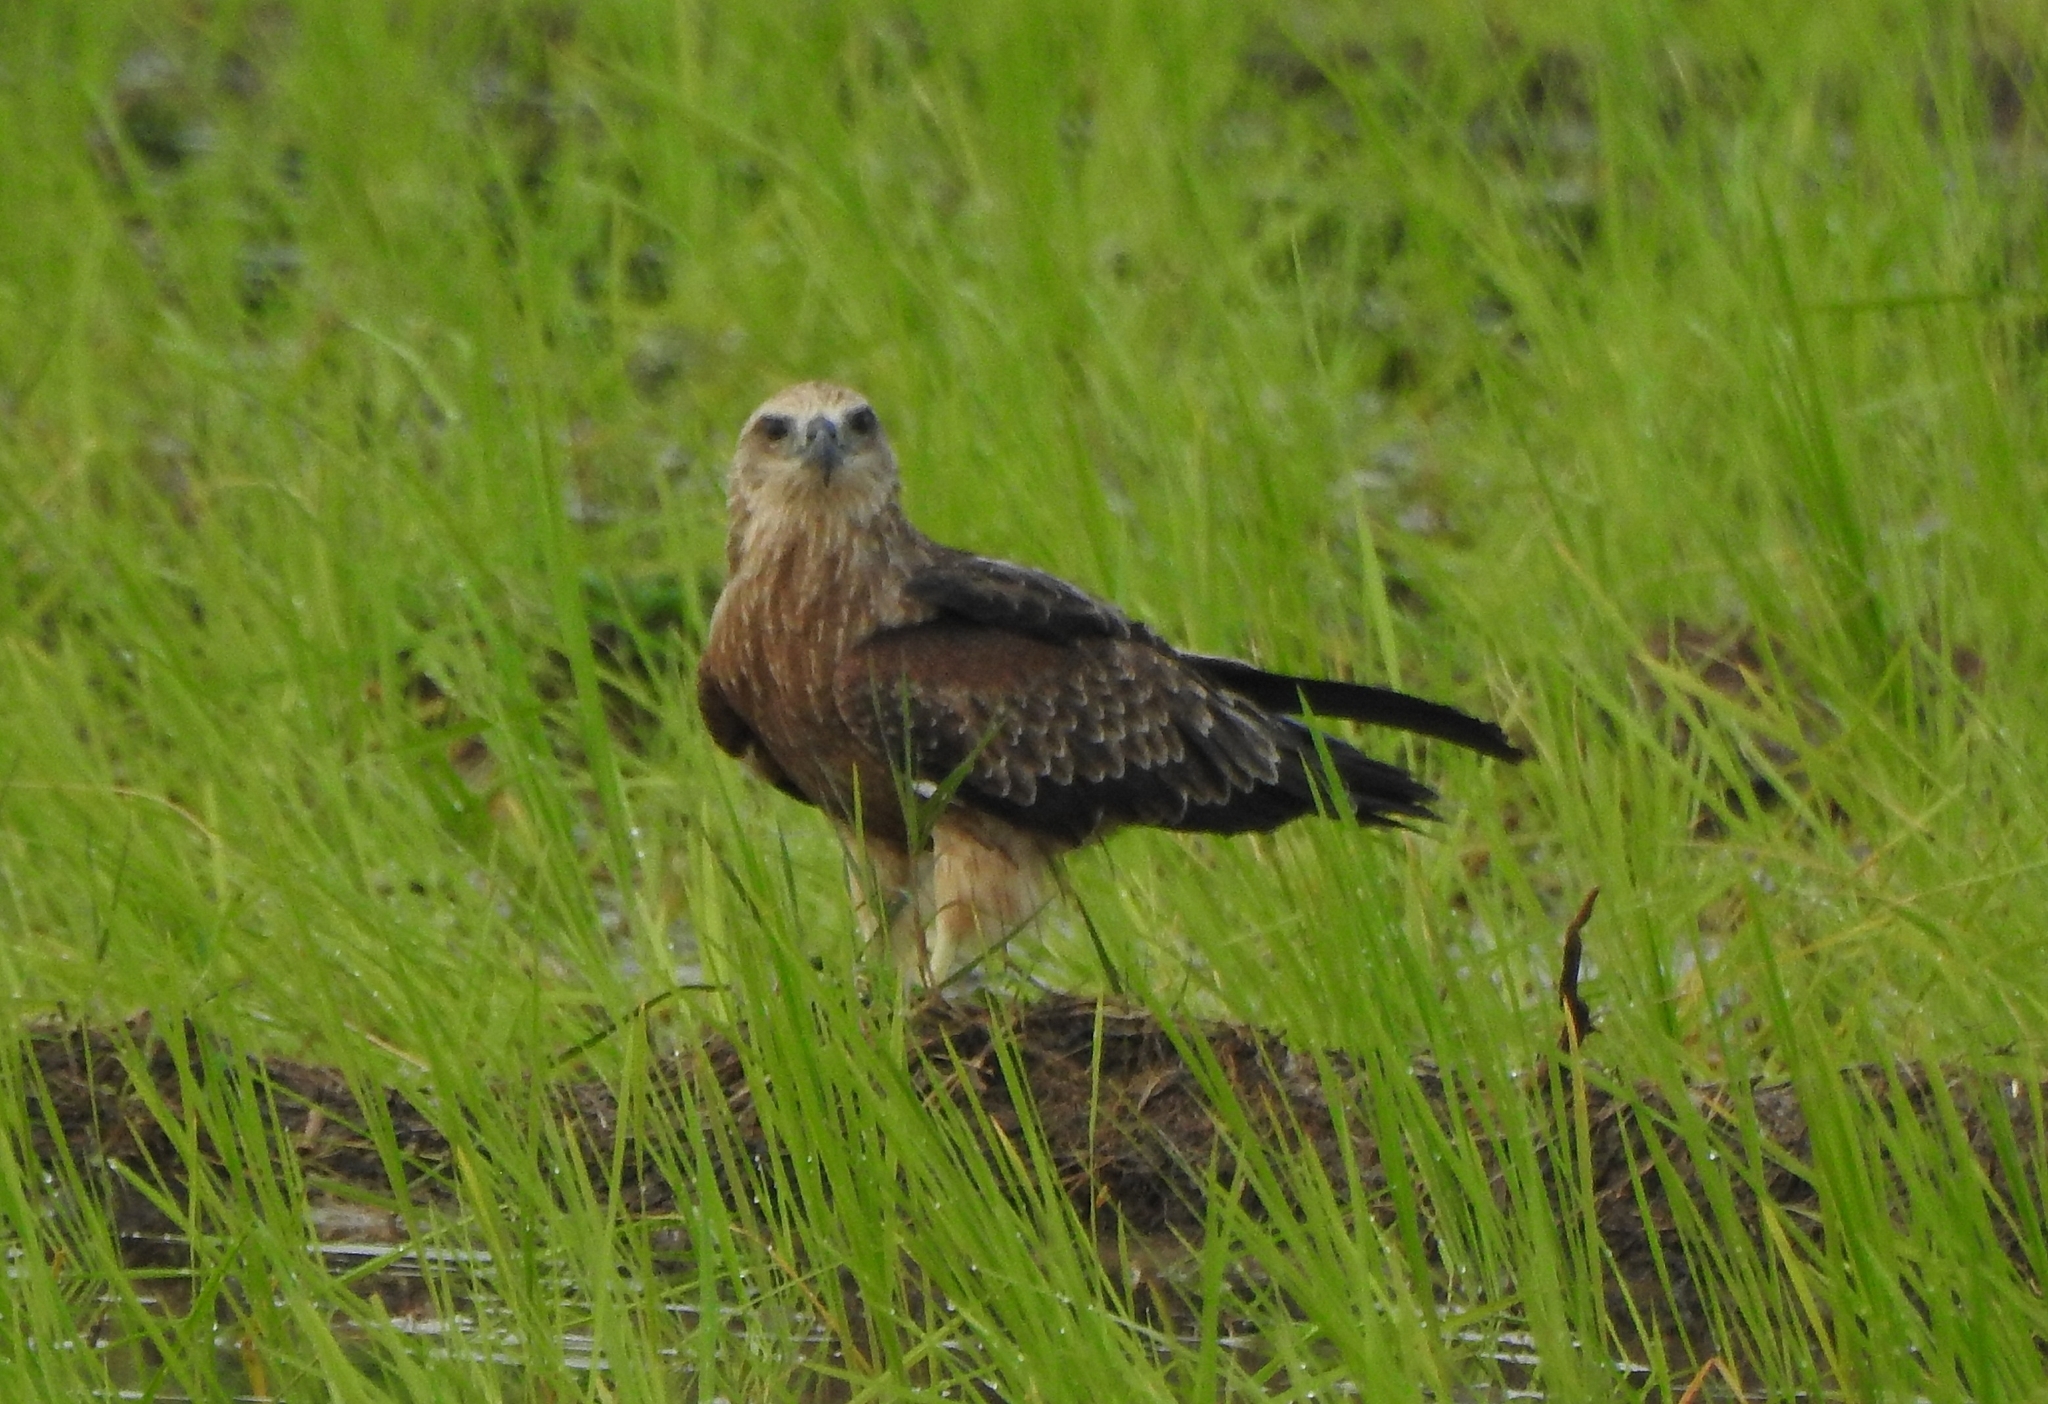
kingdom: Animalia
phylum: Chordata
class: Aves
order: Accipitriformes
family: Accipitridae
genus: Haliastur
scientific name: Haliastur indus
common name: Brahminy kite
